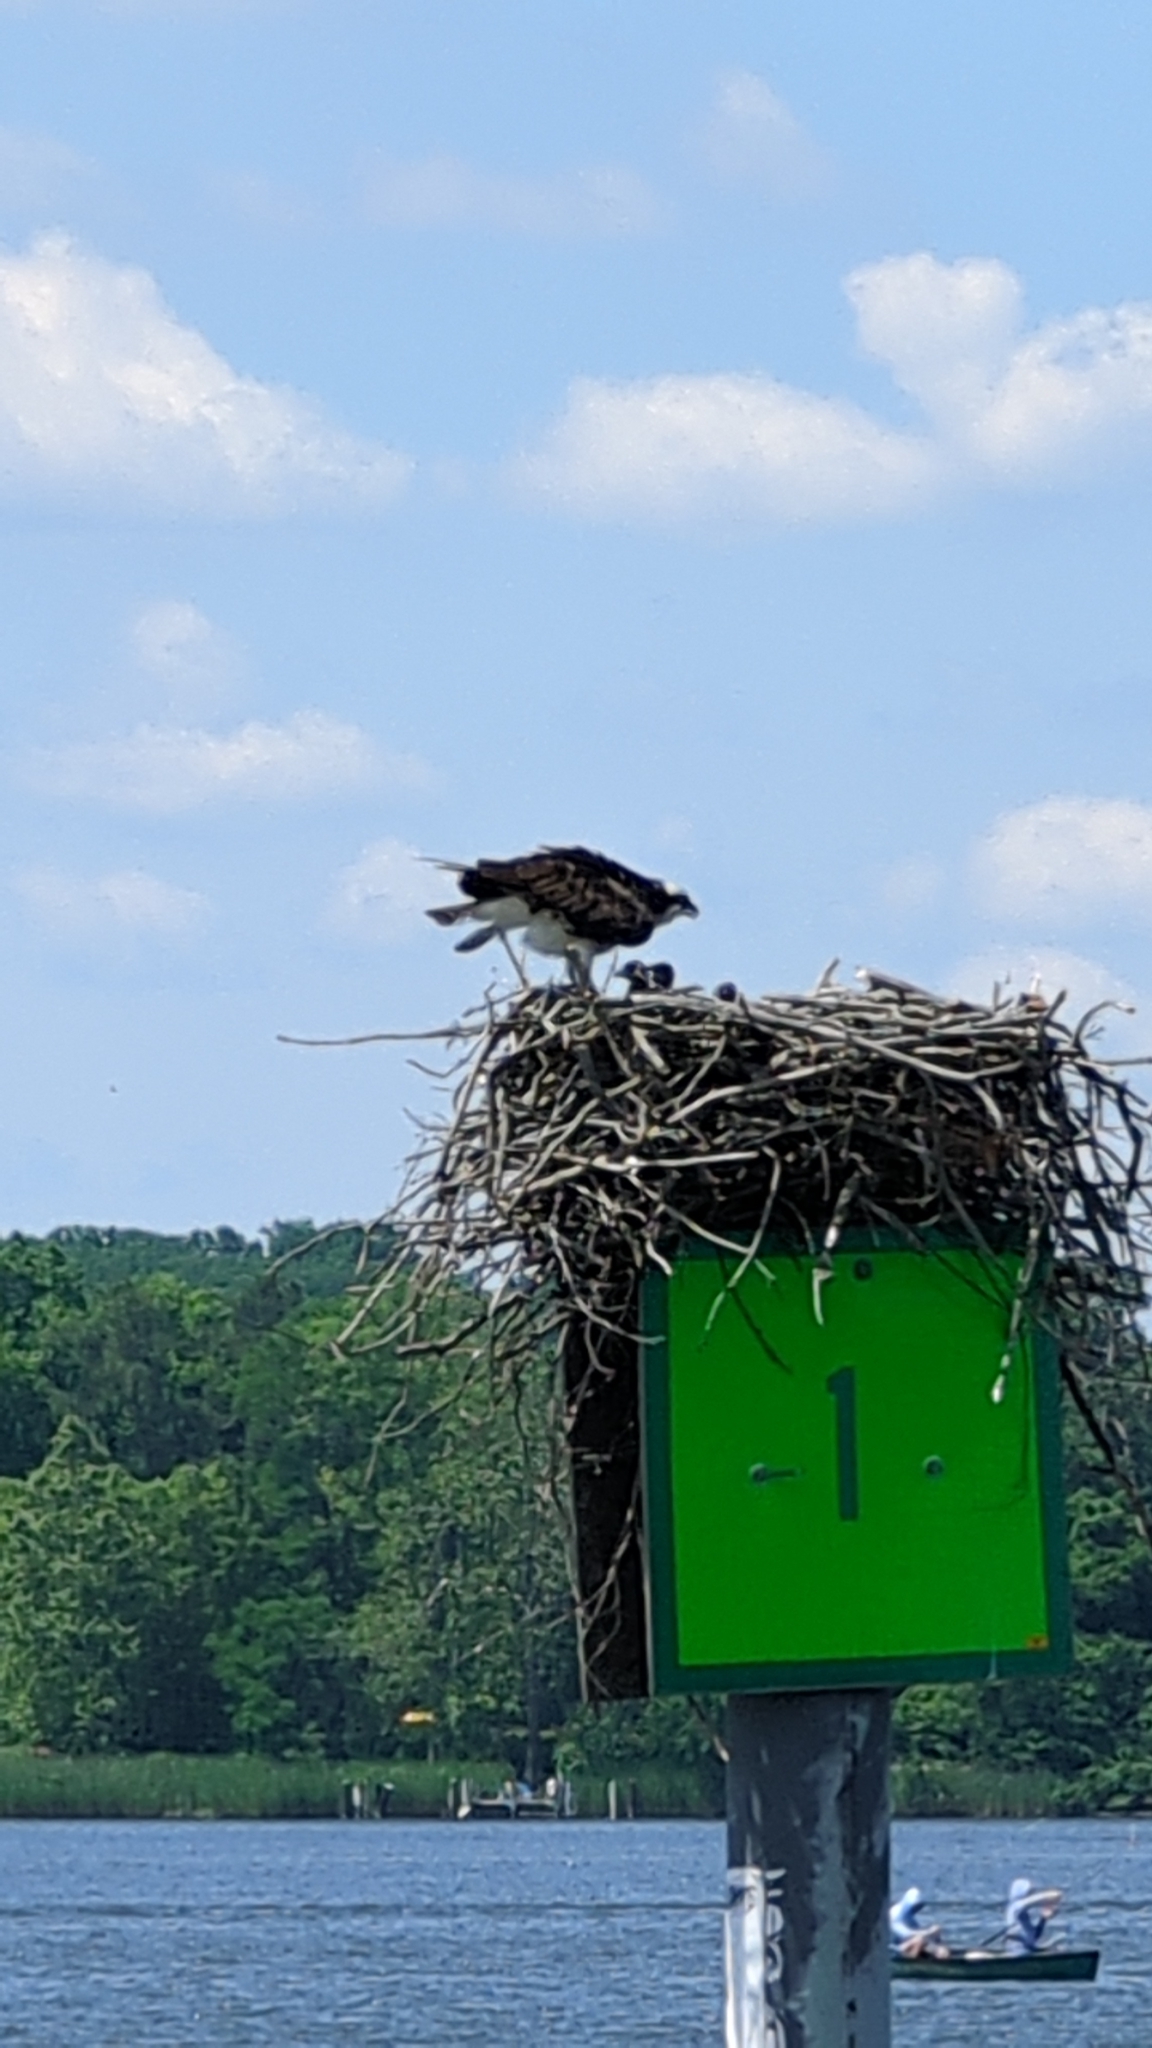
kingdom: Animalia
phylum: Chordata
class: Aves
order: Accipitriformes
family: Pandionidae
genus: Pandion
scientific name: Pandion haliaetus
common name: Osprey
